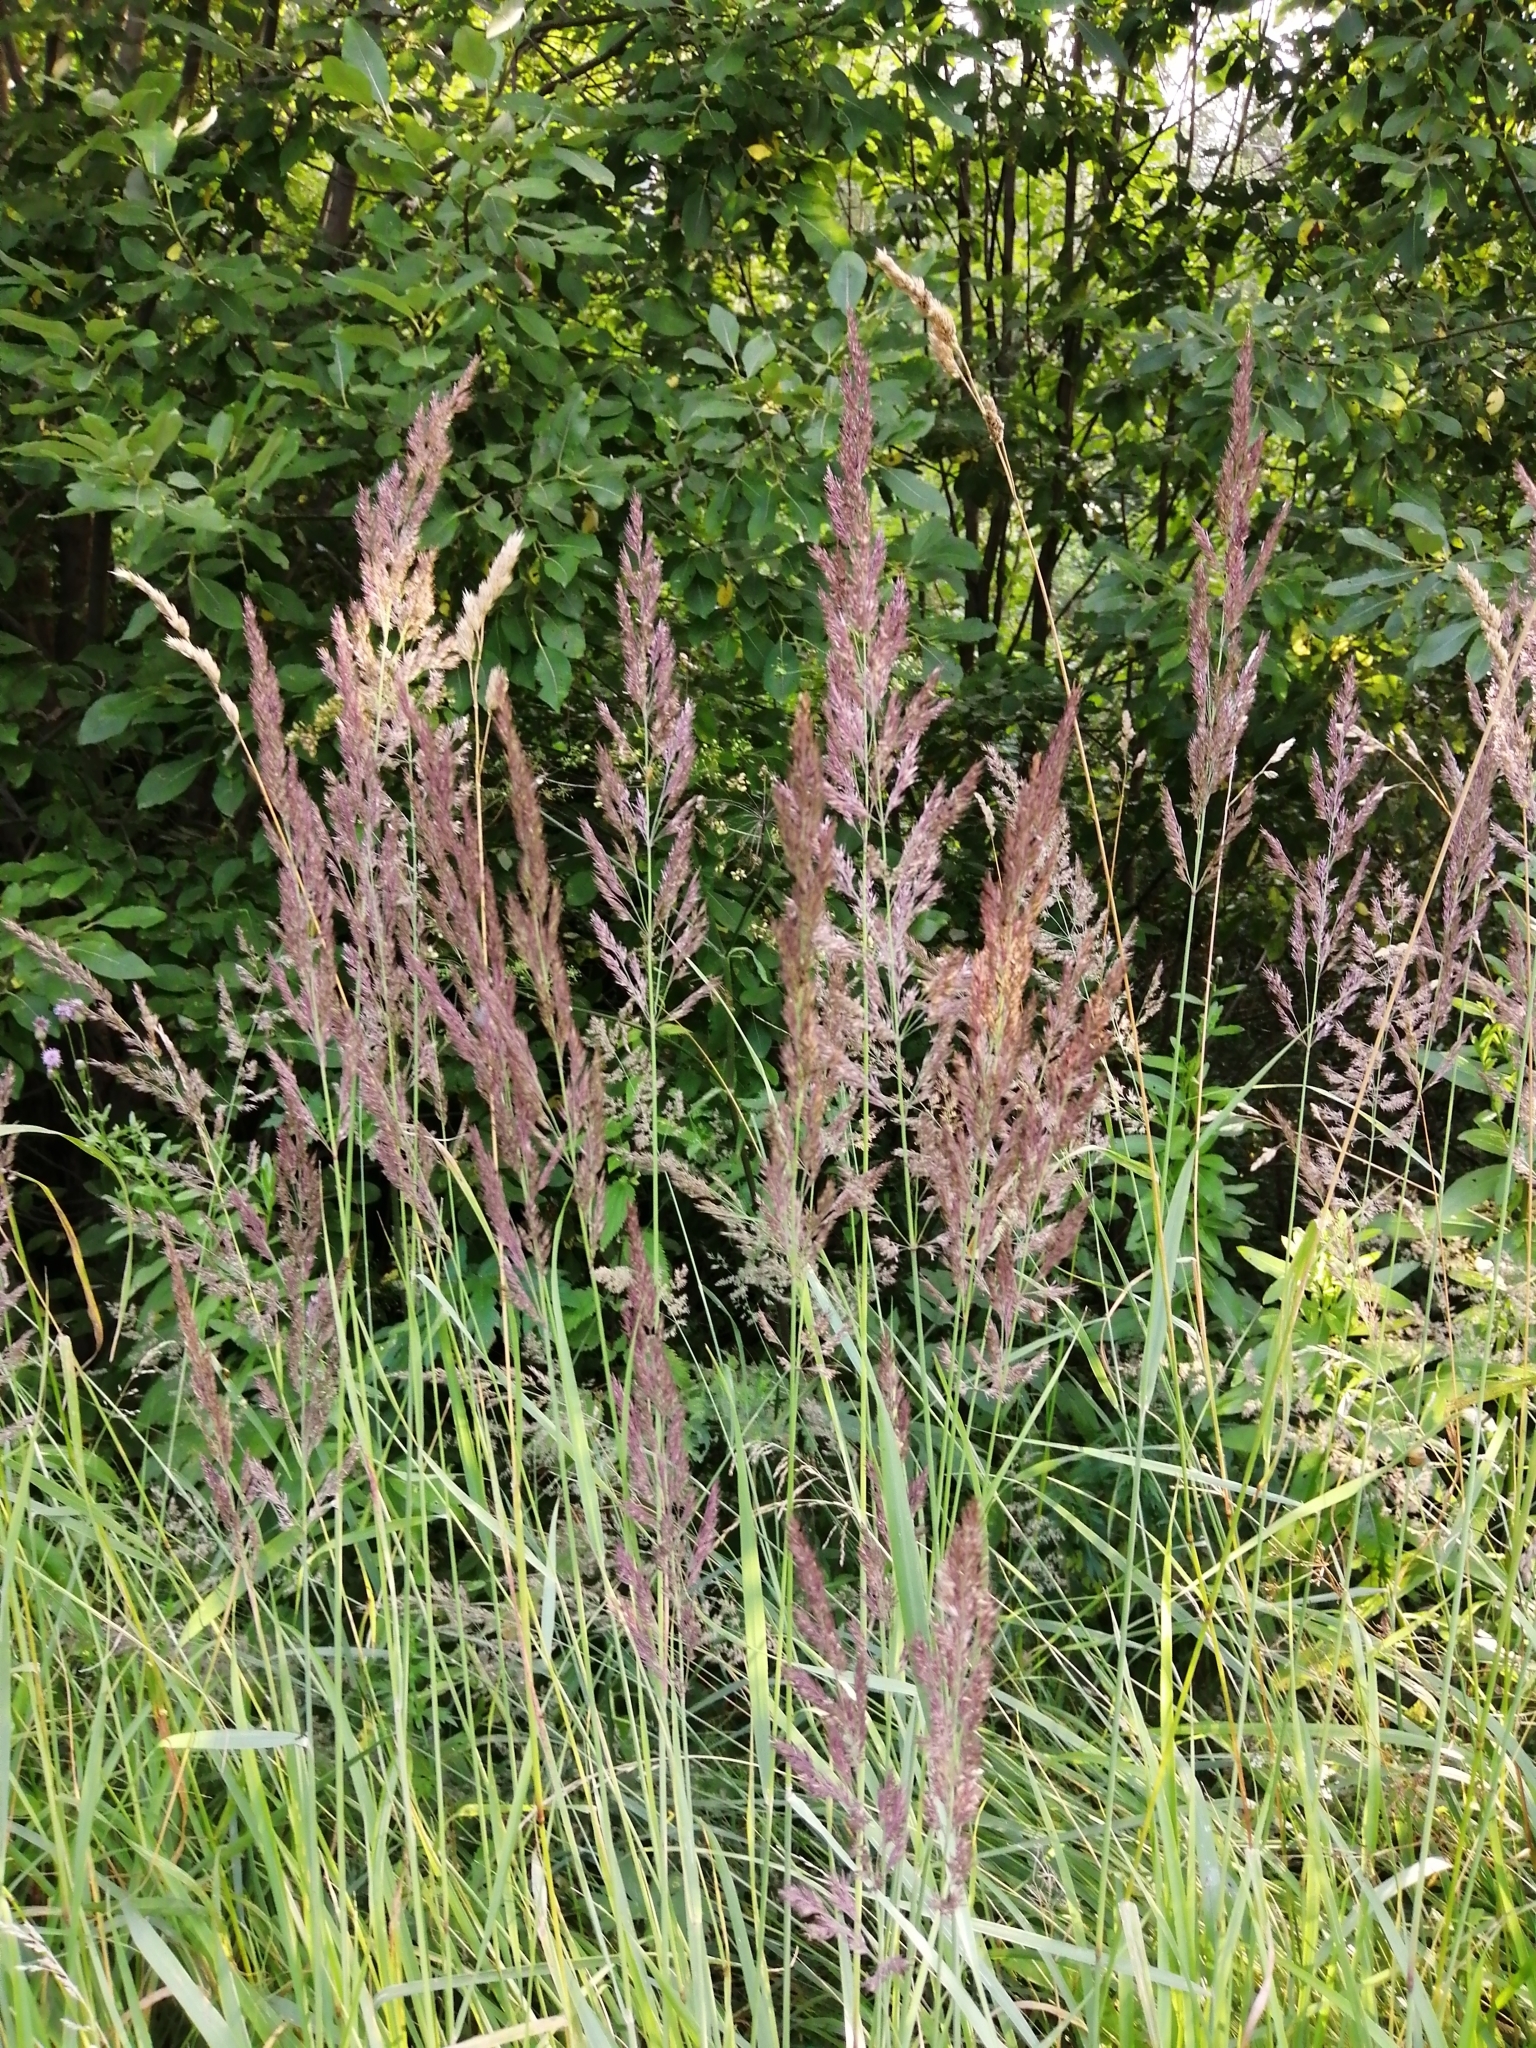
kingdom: Plantae
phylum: Tracheophyta
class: Liliopsida
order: Poales
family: Poaceae
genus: Calamagrostis
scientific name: Calamagrostis epigejos
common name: Wood small-reed
